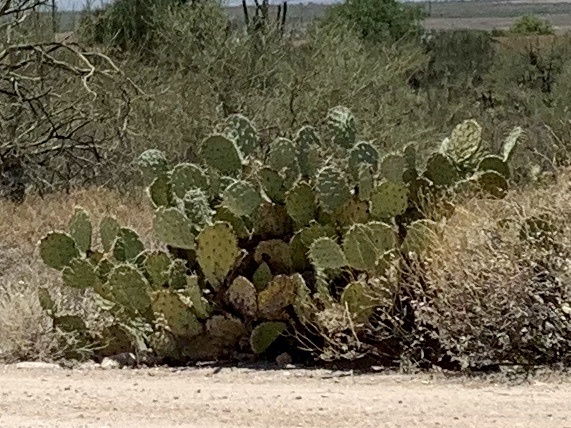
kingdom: Plantae
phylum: Tracheophyta
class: Magnoliopsida
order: Caryophyllales
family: Cactaceae
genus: Opuntia
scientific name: Opuntia engelmannii
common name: Cactus-apple
